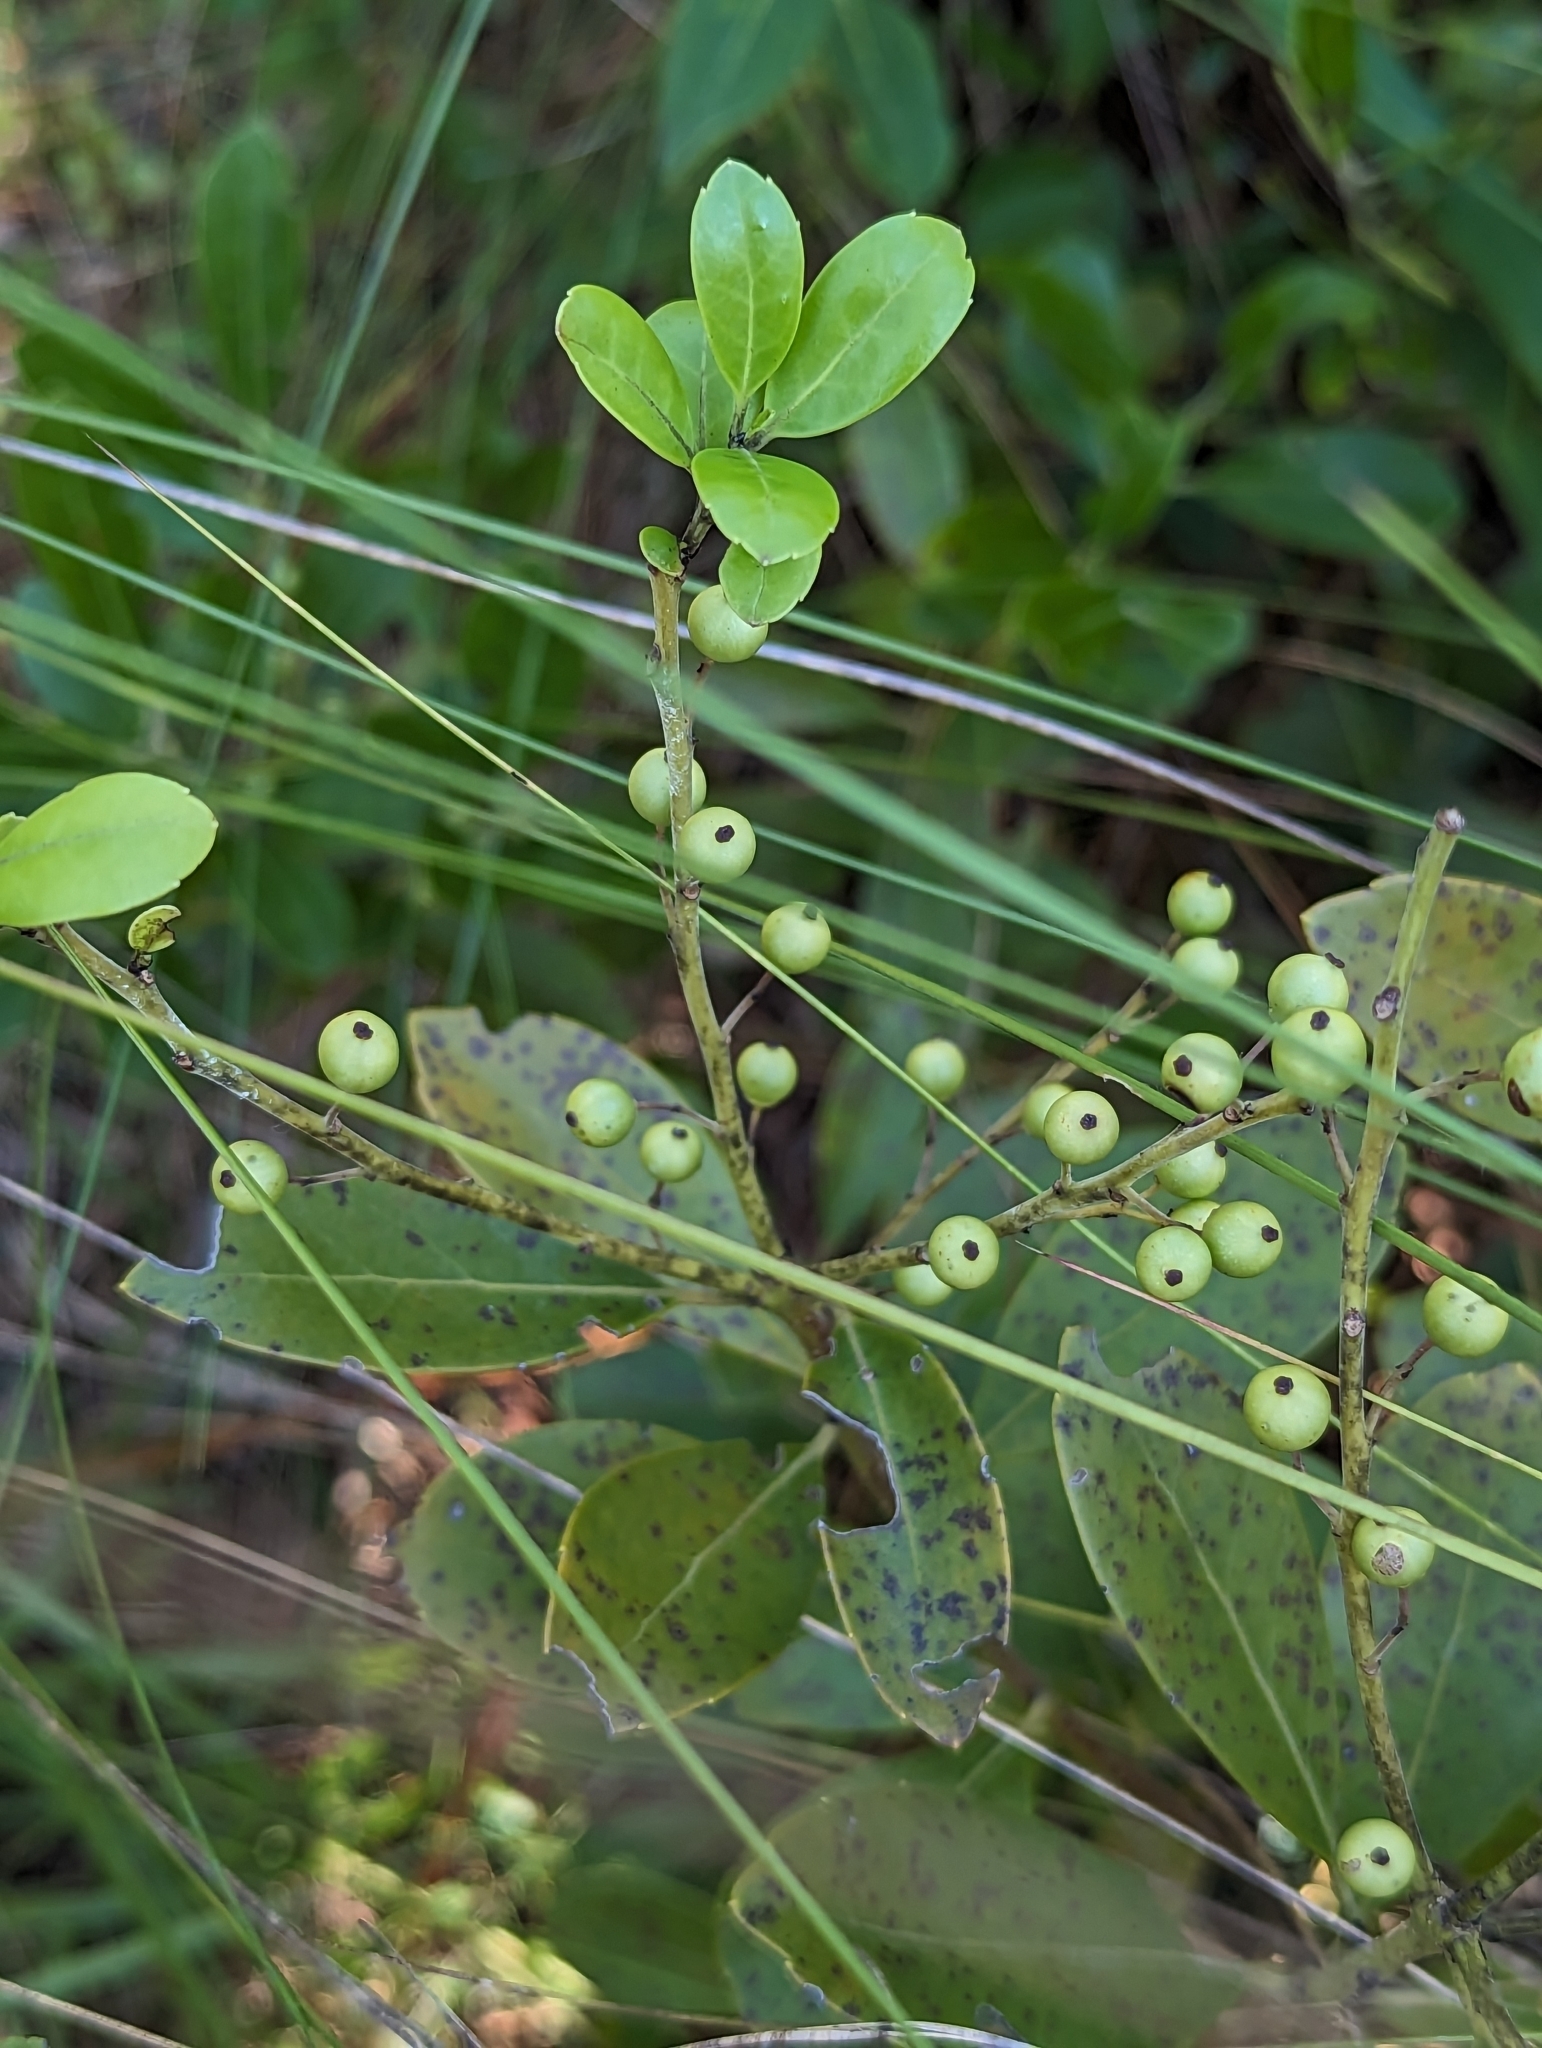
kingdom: Plantae
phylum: Tracheophyta
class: Magnoliopsida
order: Aquifoliales
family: Aquifoliaceae
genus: Ilex
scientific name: Ilex glabra
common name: Bitter gallberry
